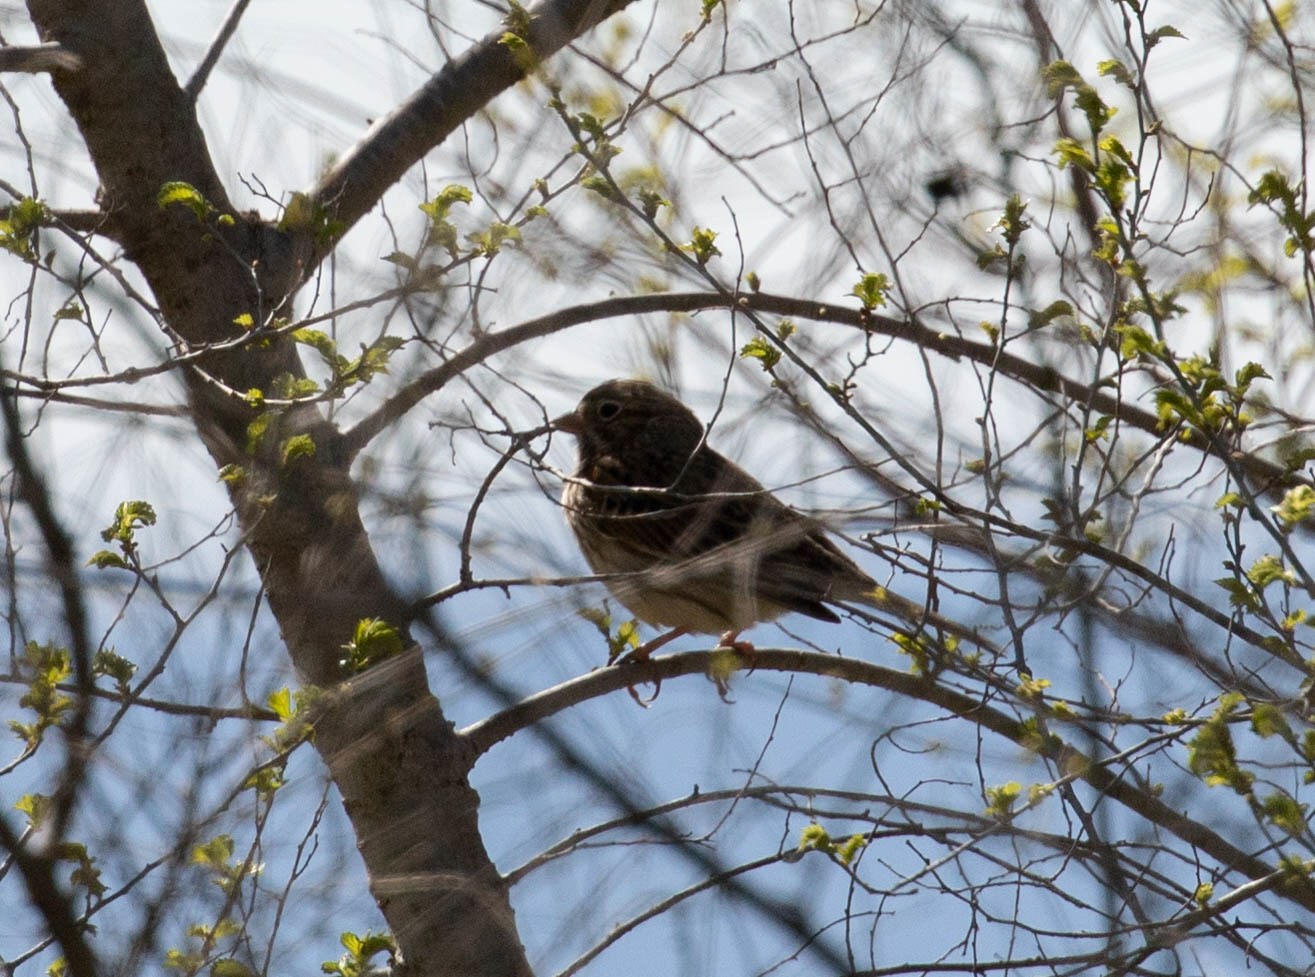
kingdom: Animalia
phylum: Chordata
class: Aves
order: Passeriformes
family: Passerellidae
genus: Pooecetes
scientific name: Pooecetes gramineus
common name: Vesper sparrow
